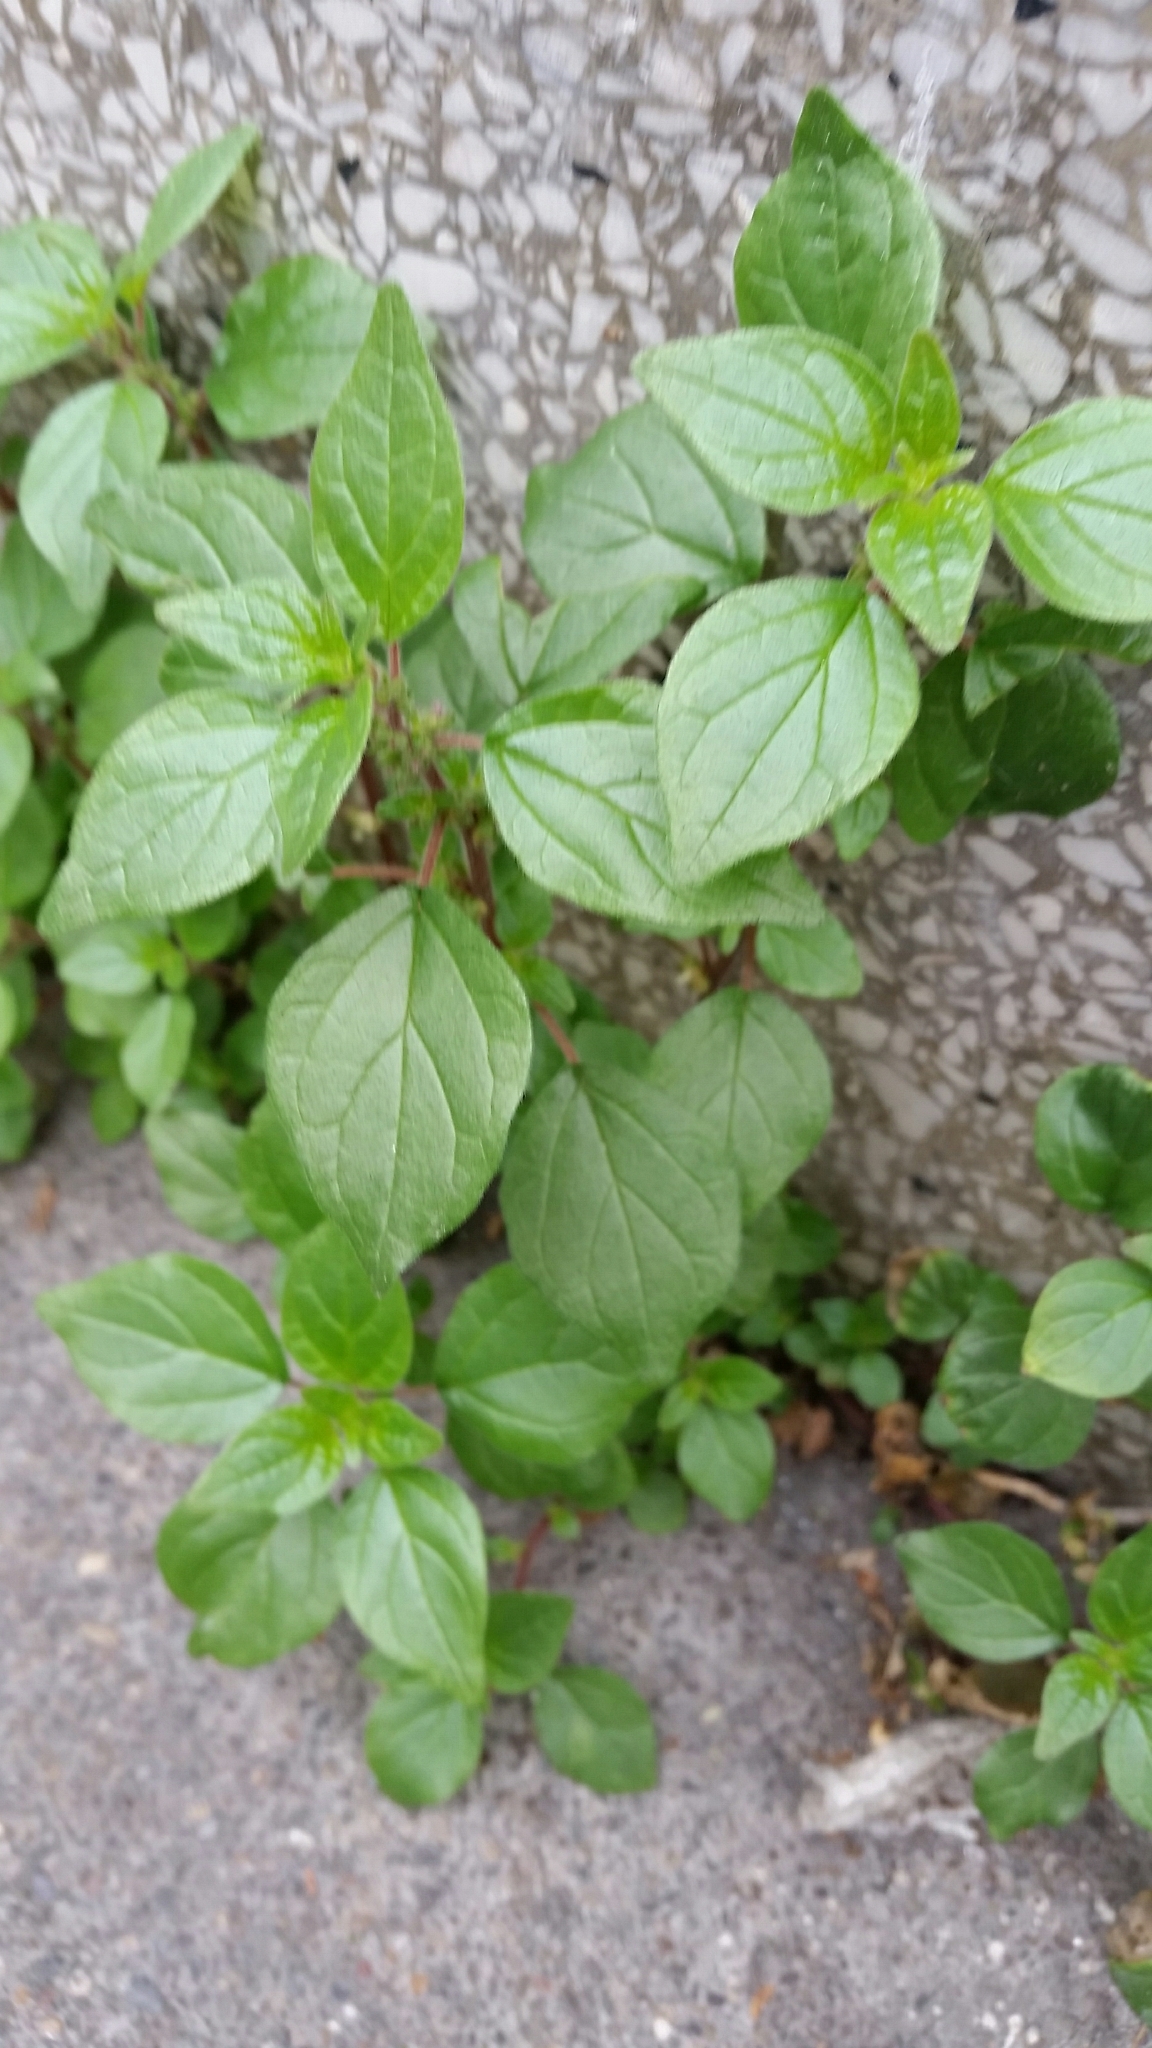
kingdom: Plantae
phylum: Tracheophyta
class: Magnoliopsida
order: Rosales
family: Urticaceae
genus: Parietaria
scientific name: Parietaria judaica
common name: Pellitory-of-the-wall
